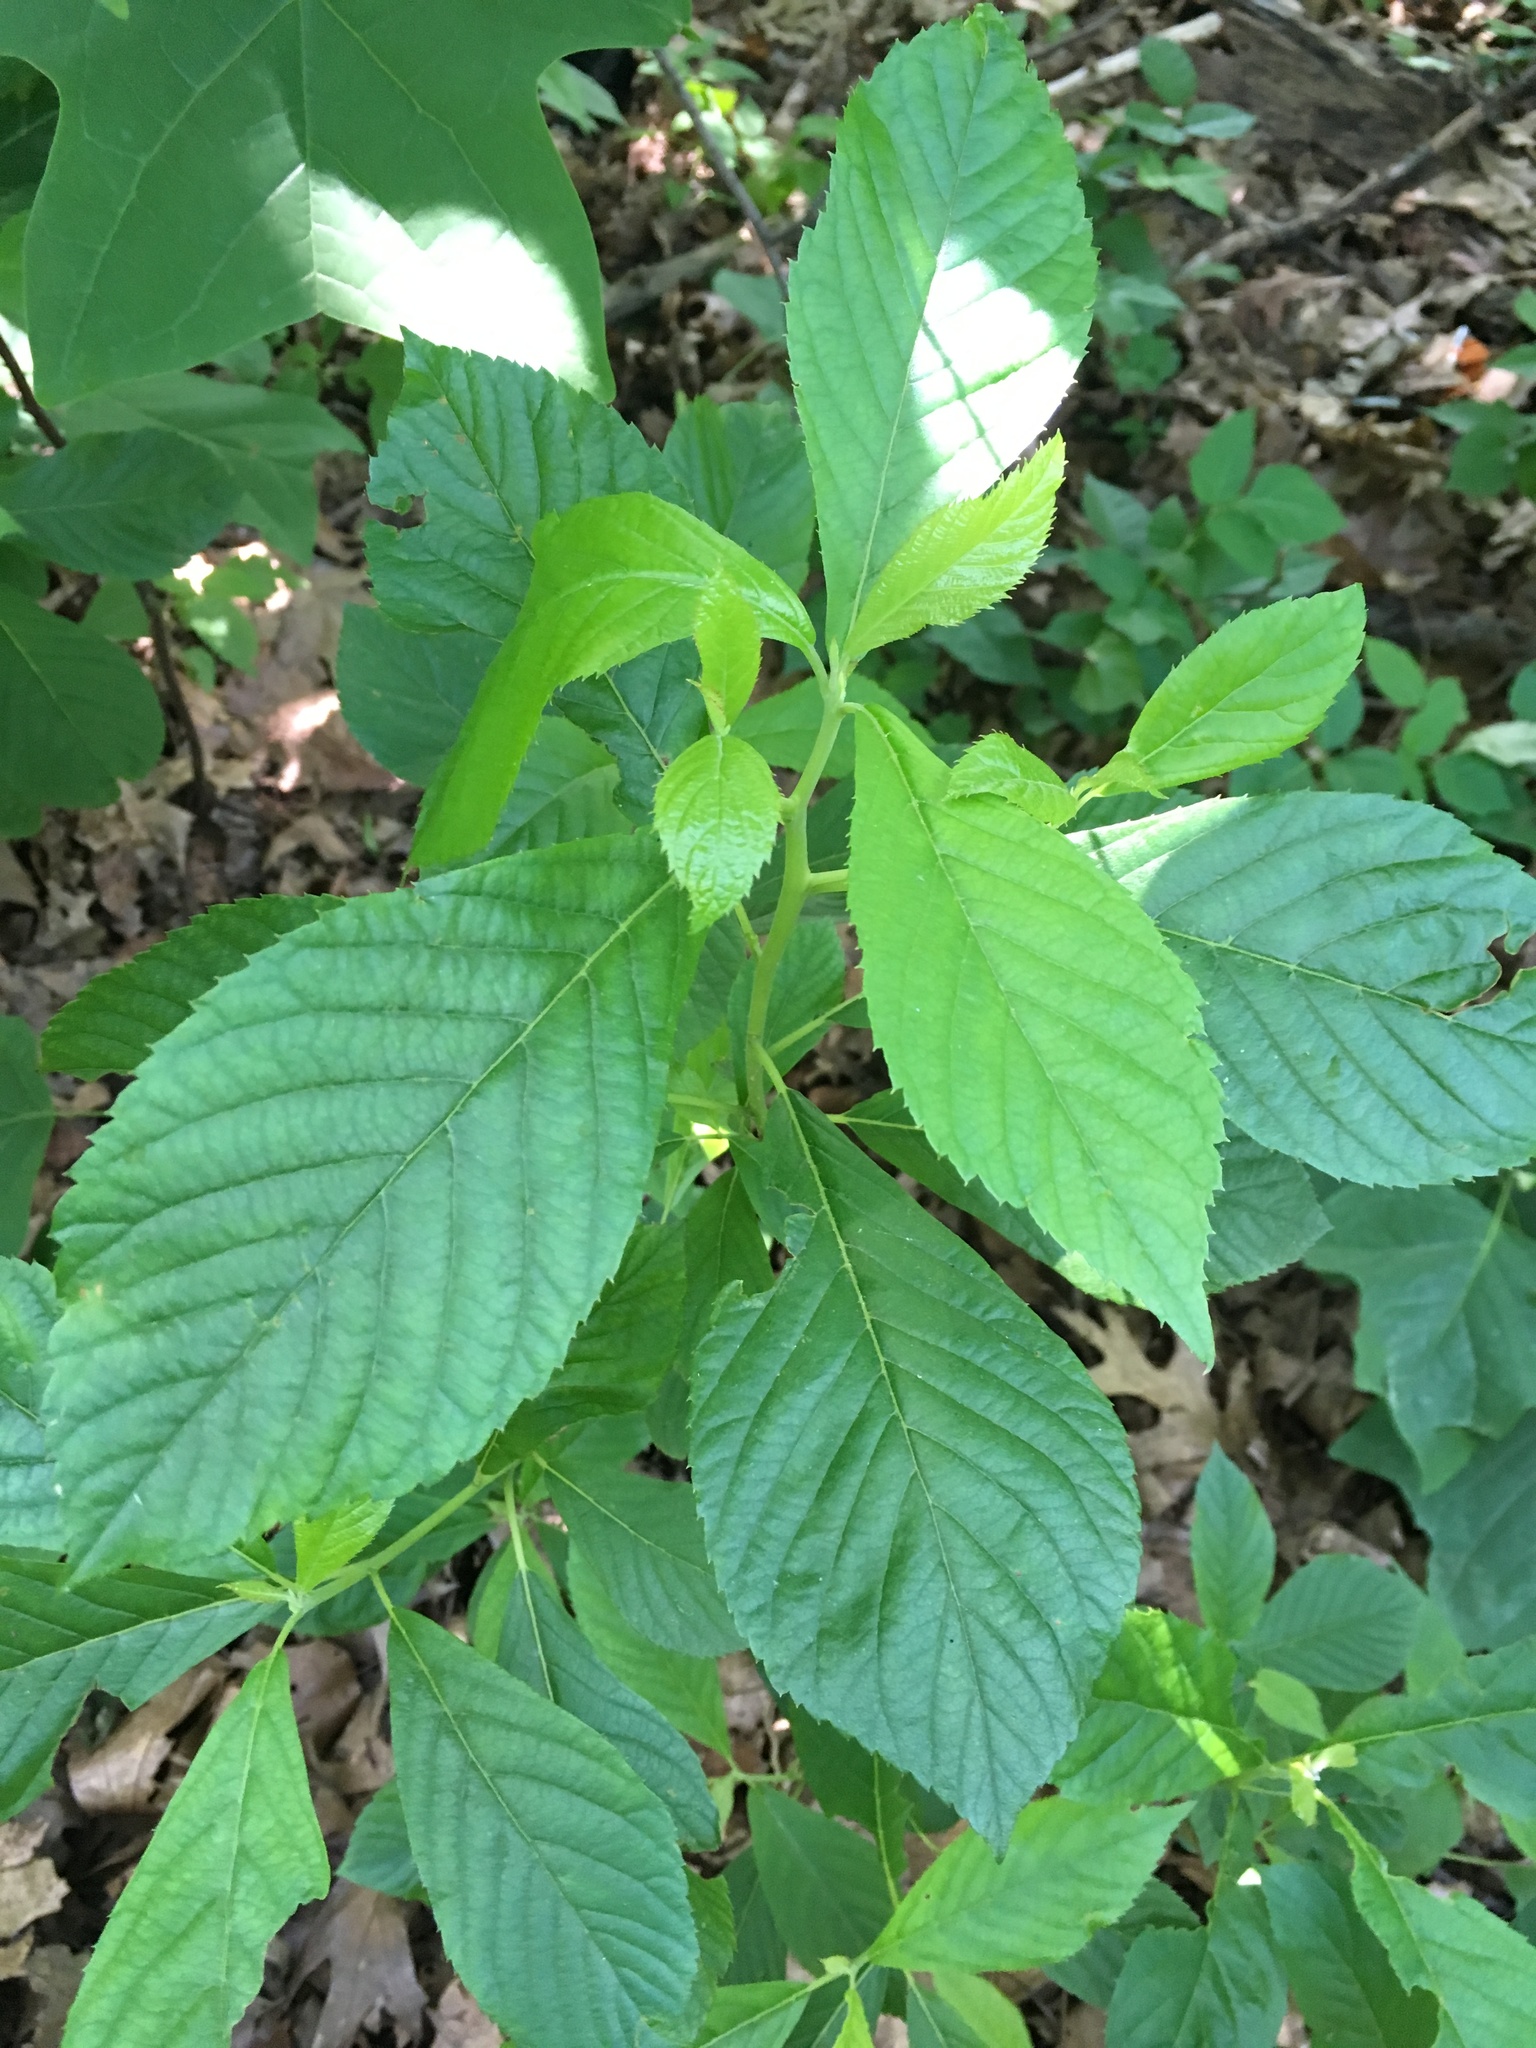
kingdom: Plantae
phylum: Tracheophyta
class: Magnoliopsida
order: Ericales
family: Clethraceae
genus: Clethra
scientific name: Clethra alnifolia
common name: Sweet pepperbush
